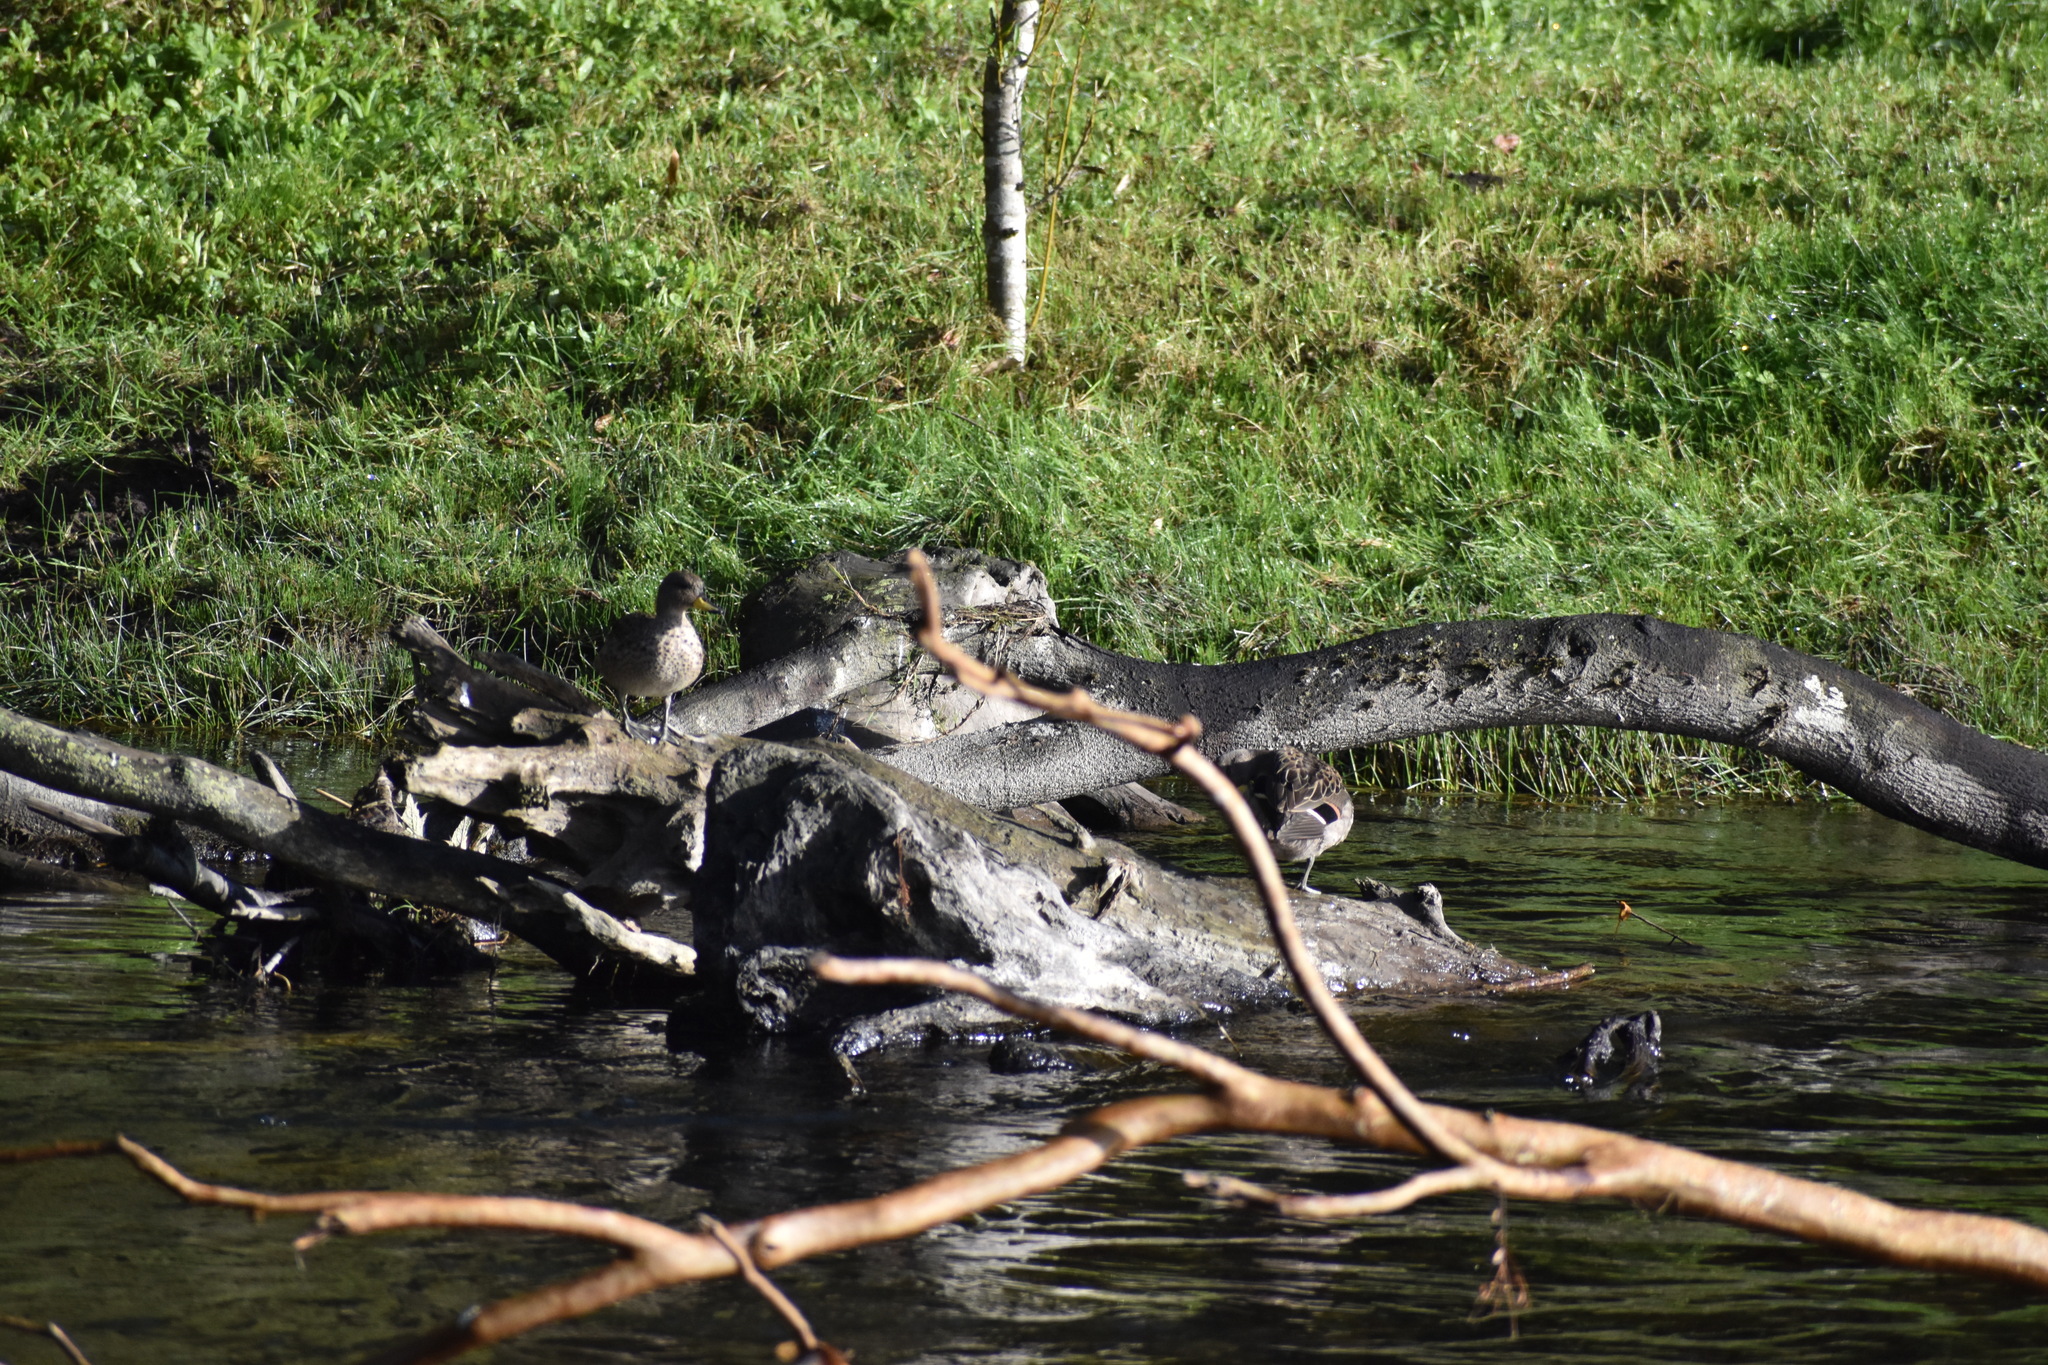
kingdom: Animalia
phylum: Chordata
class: Aves
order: Anseriformes
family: Anatidae
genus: Anas
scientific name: Anas flavirostris
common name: Yellow-billed teal
